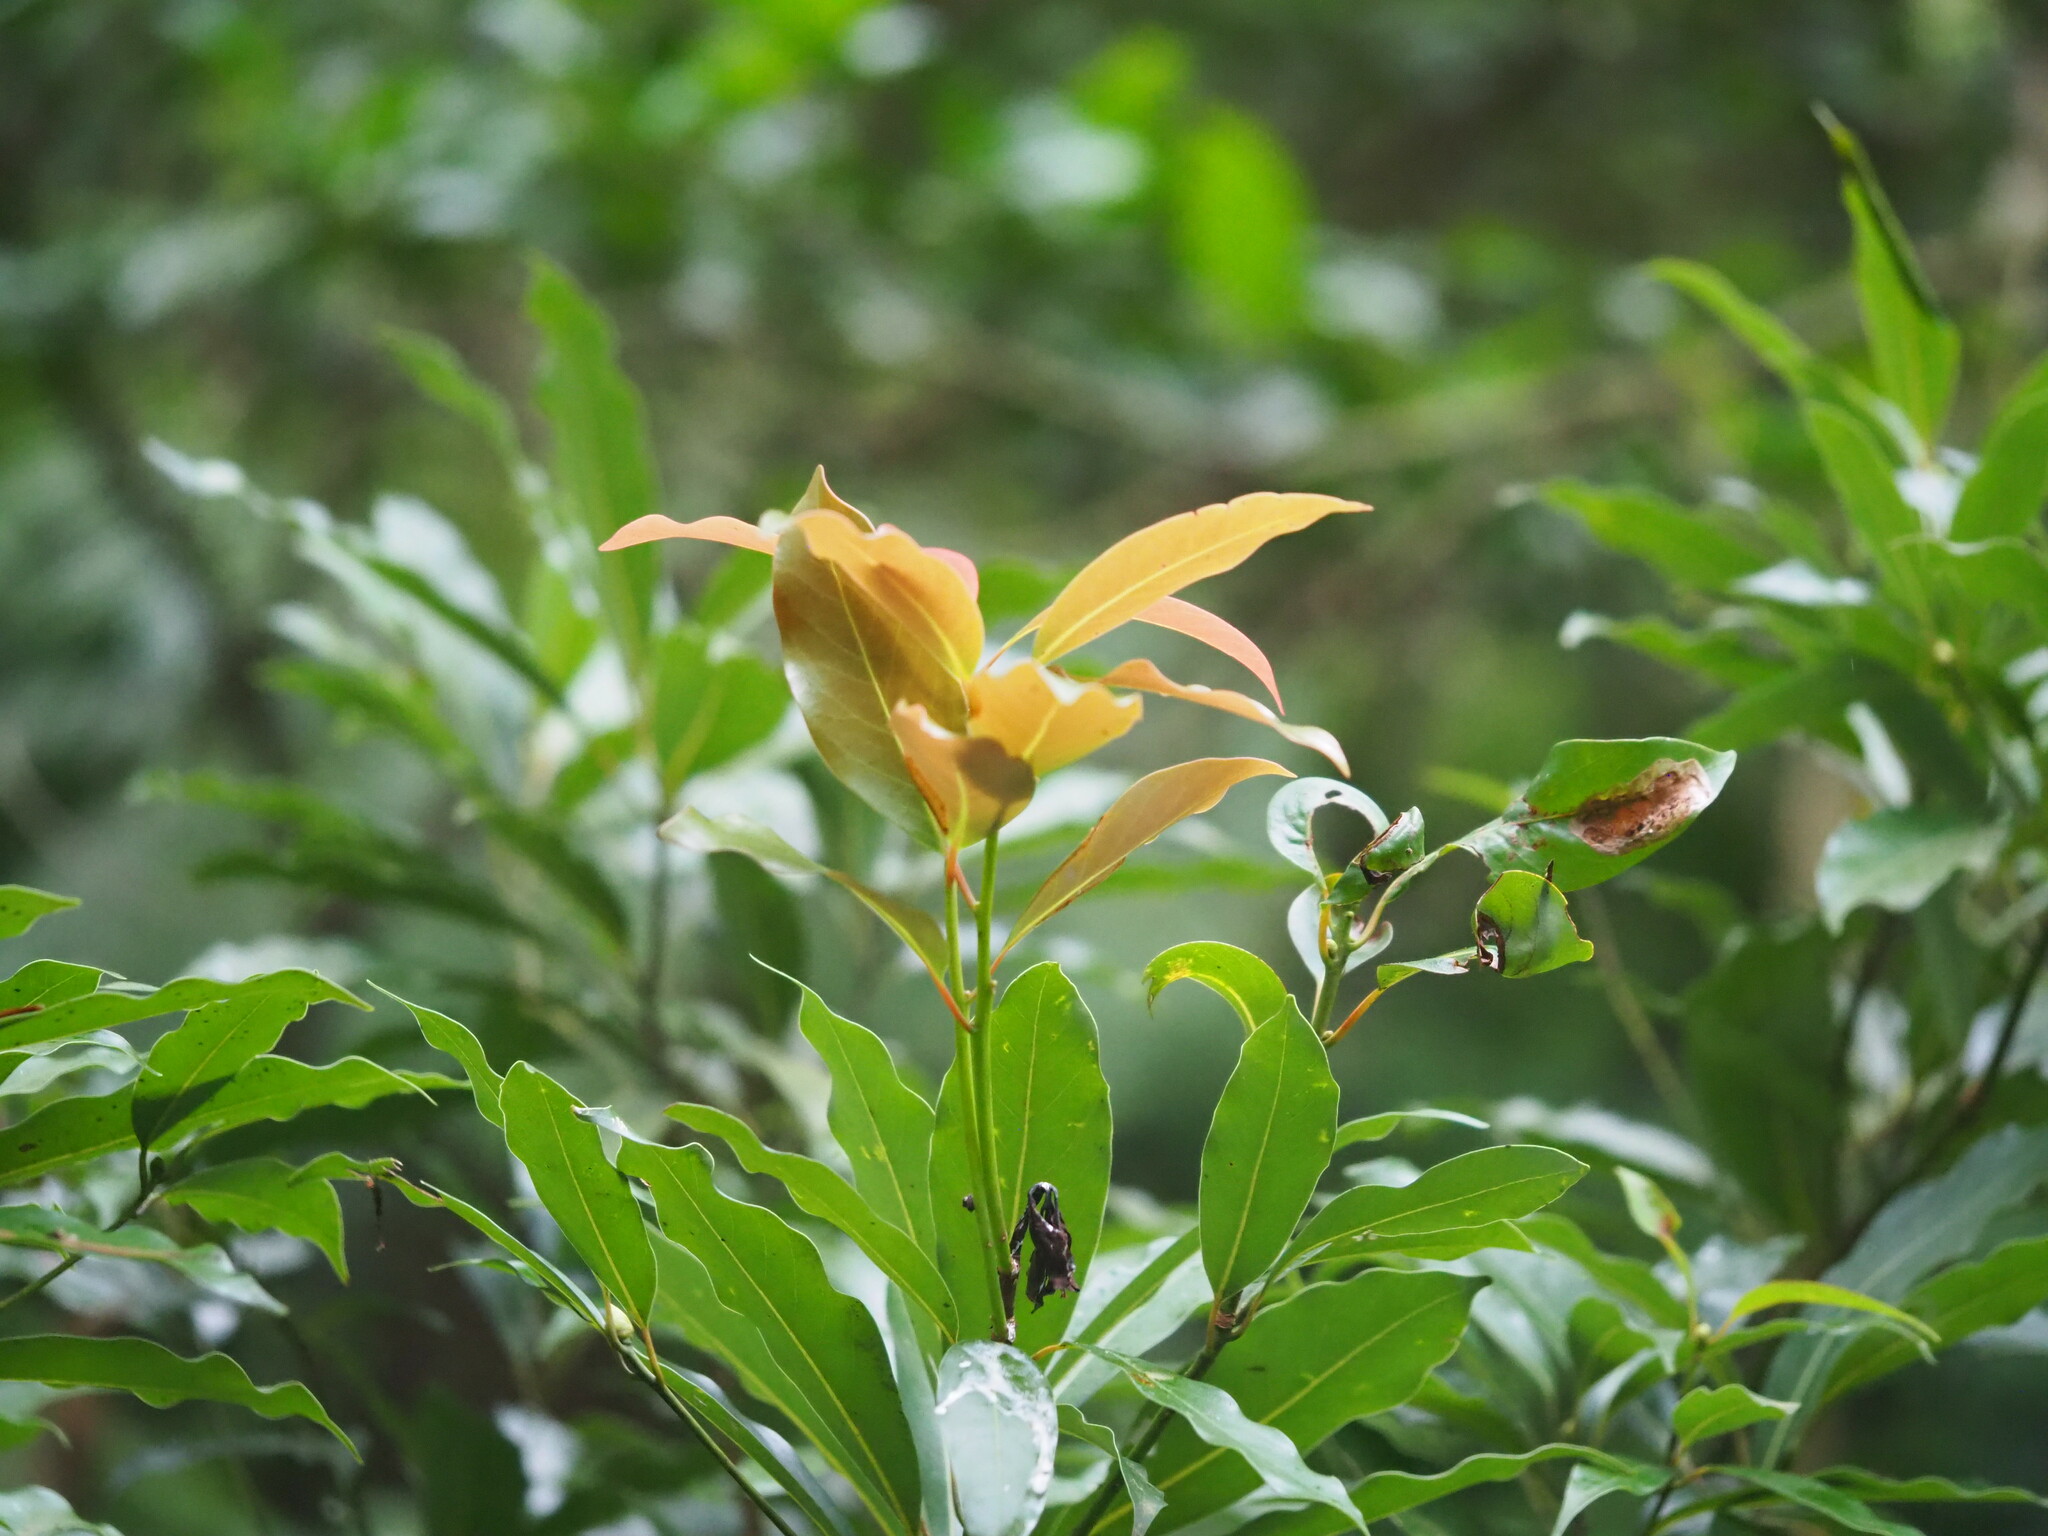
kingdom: Plantae
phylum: Tracheophyta
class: Magnoliopsida
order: Laurales
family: Lauraceae
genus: Machilus
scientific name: Machilus thunbergii
